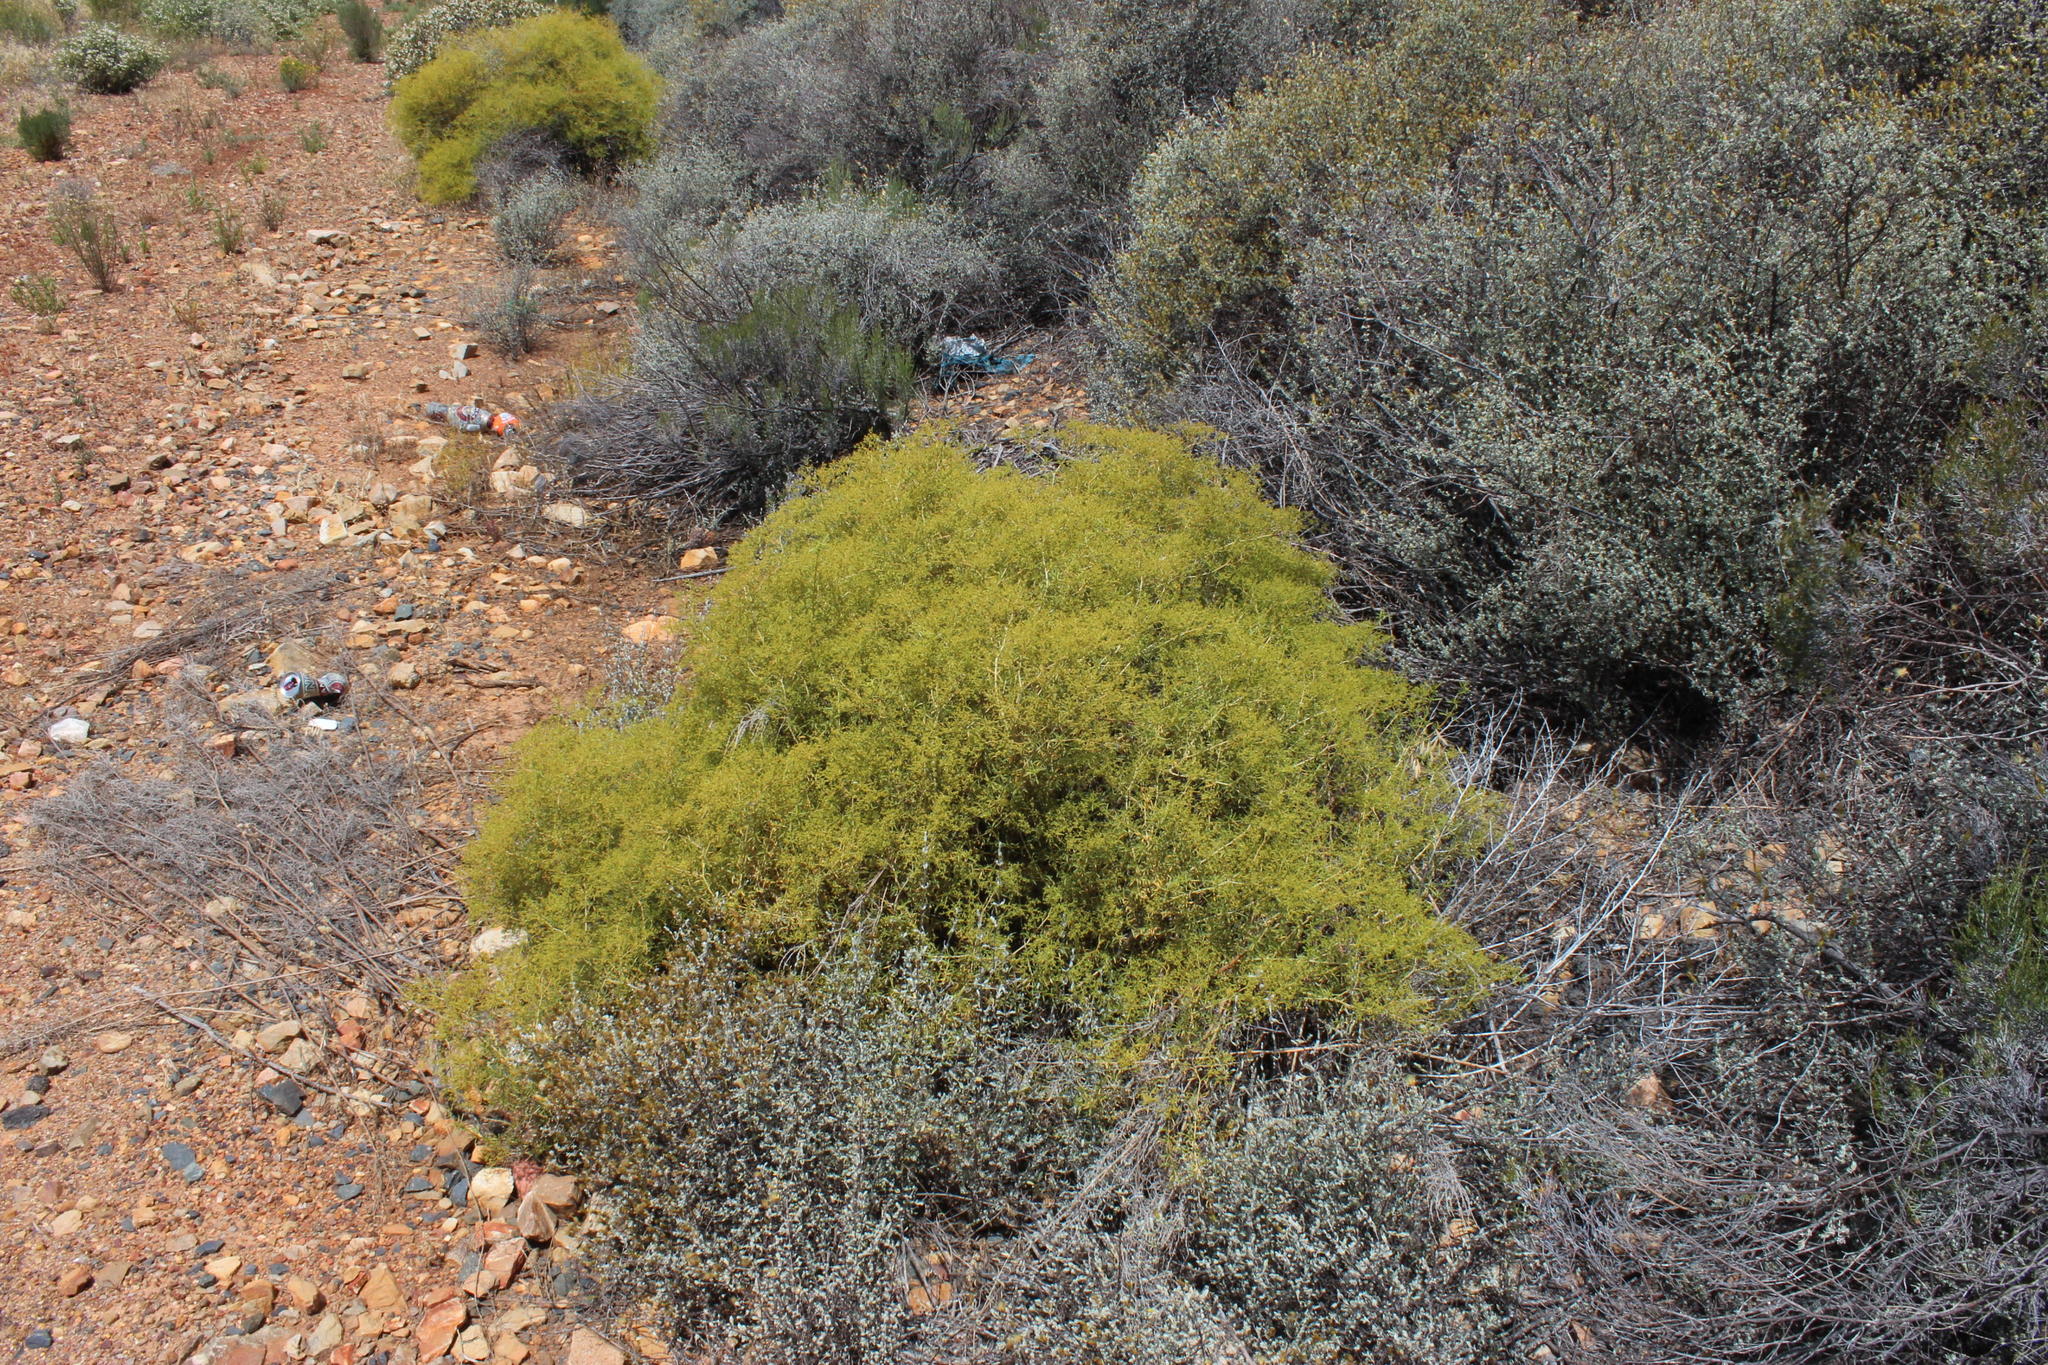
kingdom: Plantae
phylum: Tracheophyta
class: Magnoliopsida
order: Caryophyllales
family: Aizoaceae
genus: Aizoon
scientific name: Aizoon africanum
